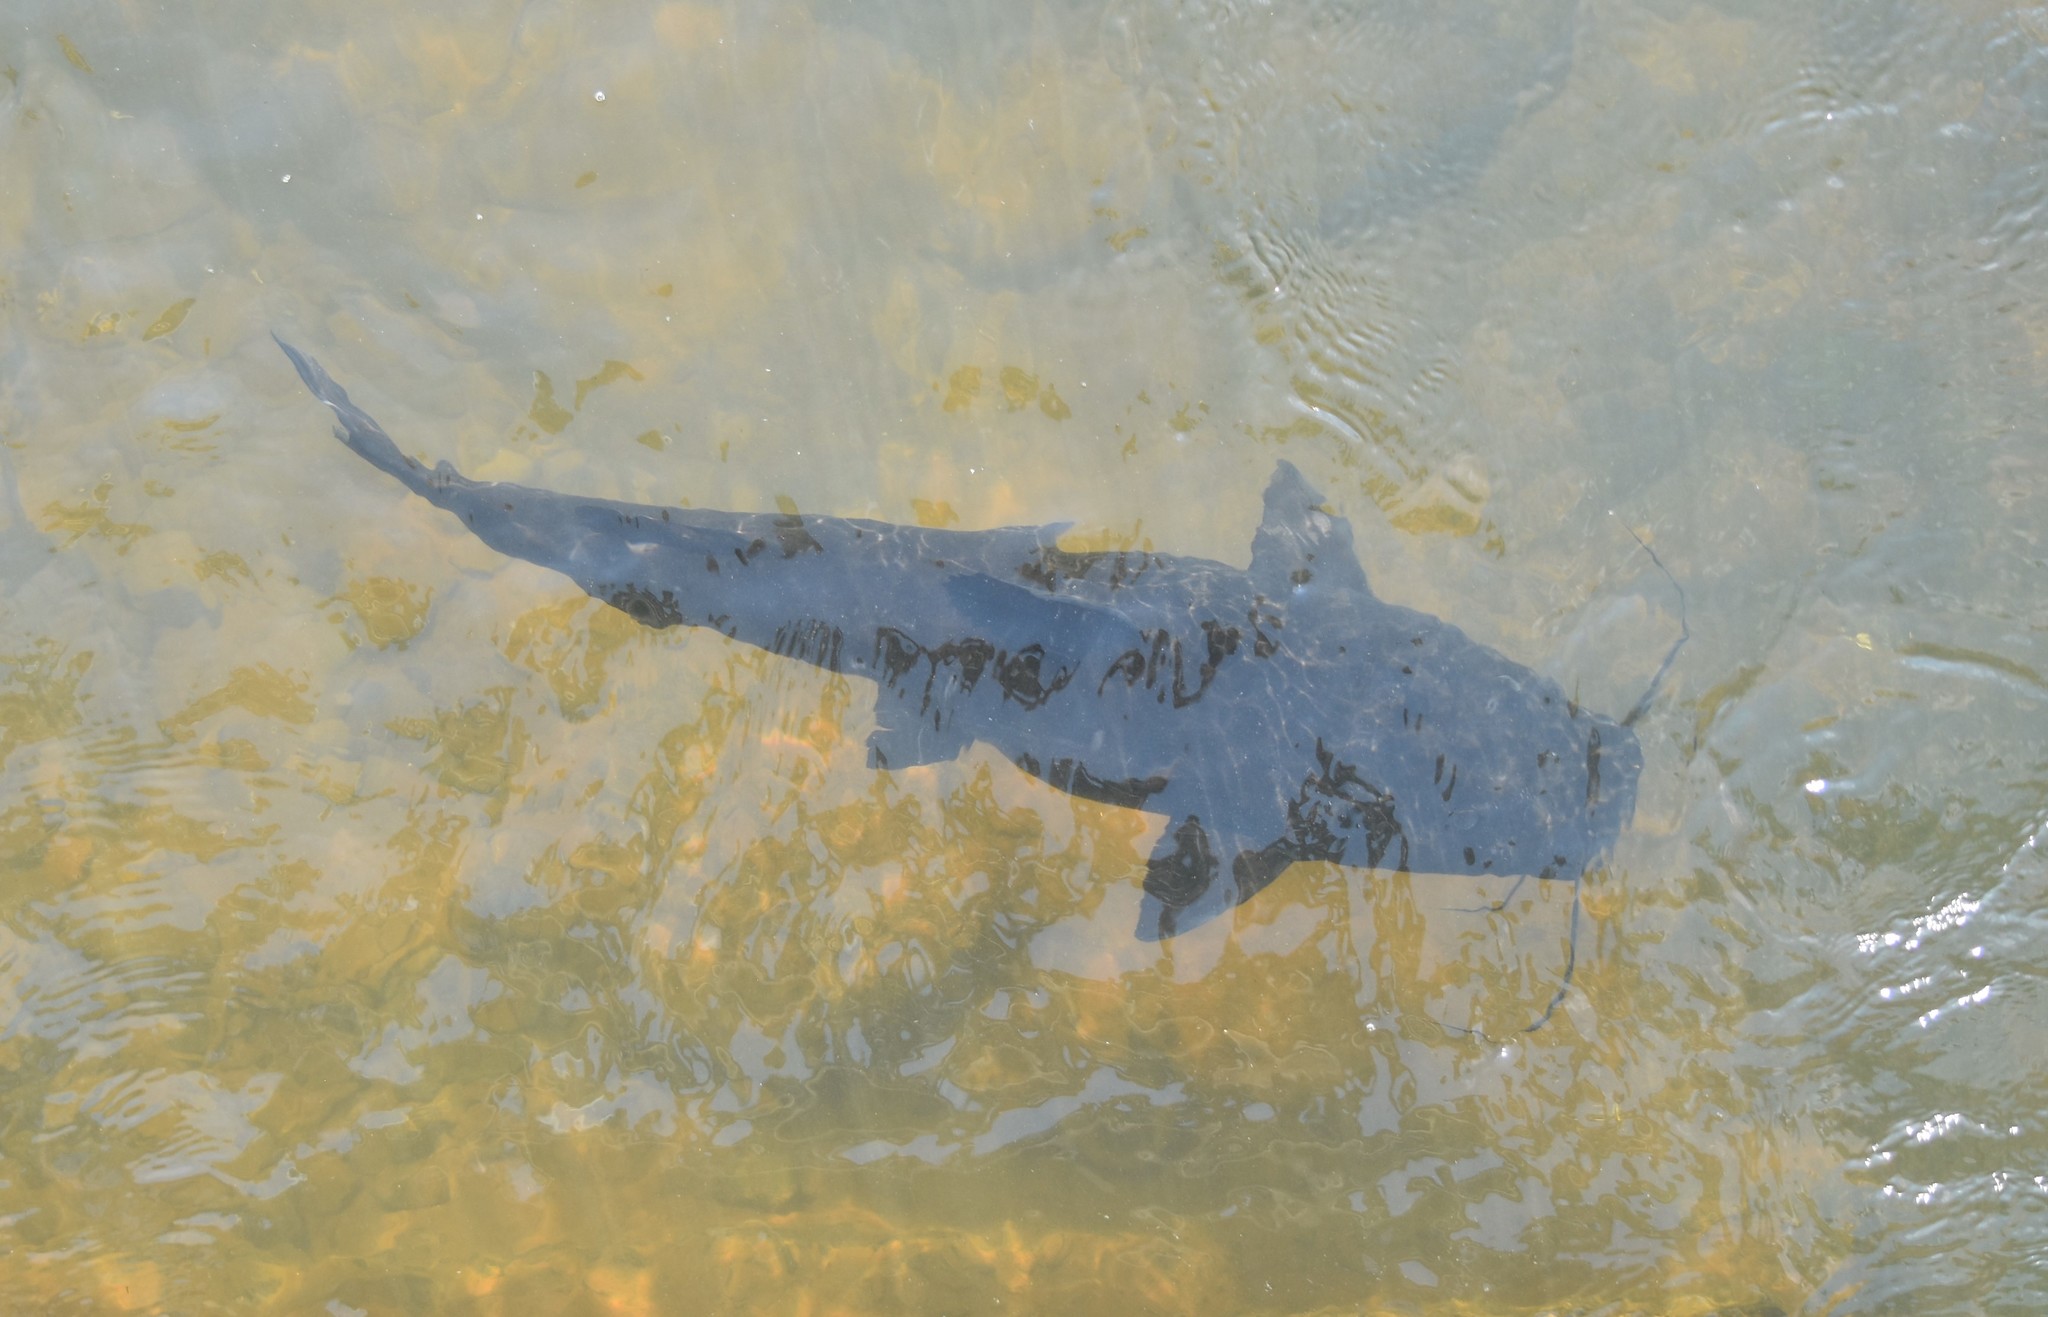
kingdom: Animalia
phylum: Chordata
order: Siluriformes
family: Pimelodidae
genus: Steindachneridion
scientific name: Steindachneridion melanodermatum
